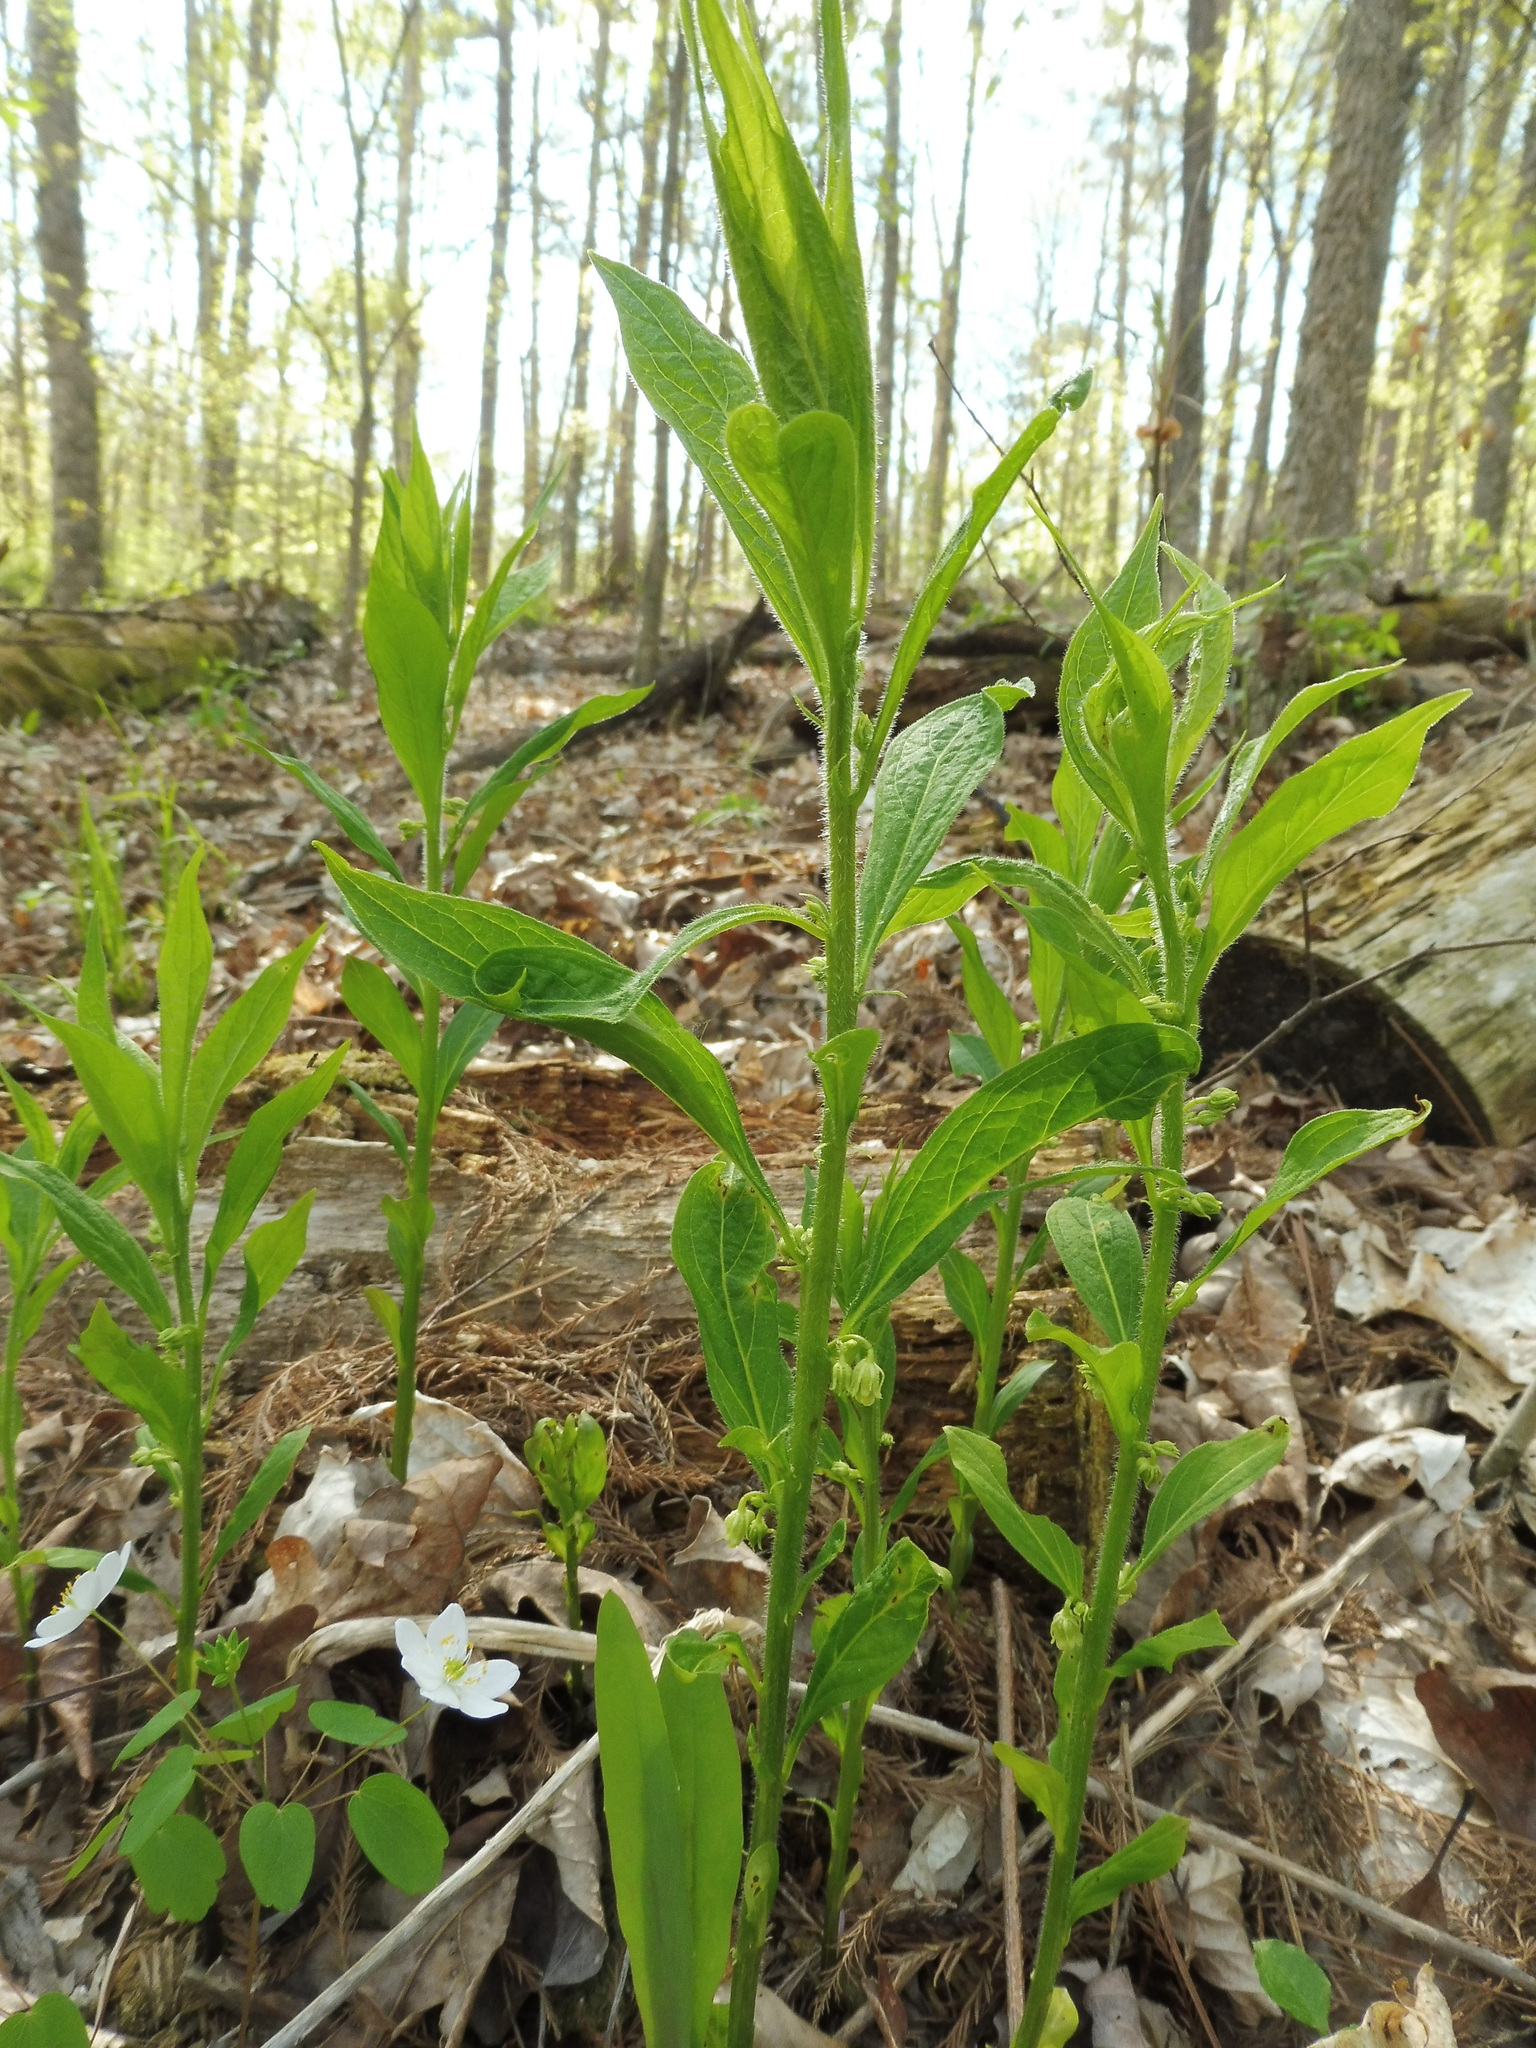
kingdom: Plantae
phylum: Tracheophyta
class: Magnoliopsida
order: Malpighiales
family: Violaceae
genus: Cubelium
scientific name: Cubelium concolor
